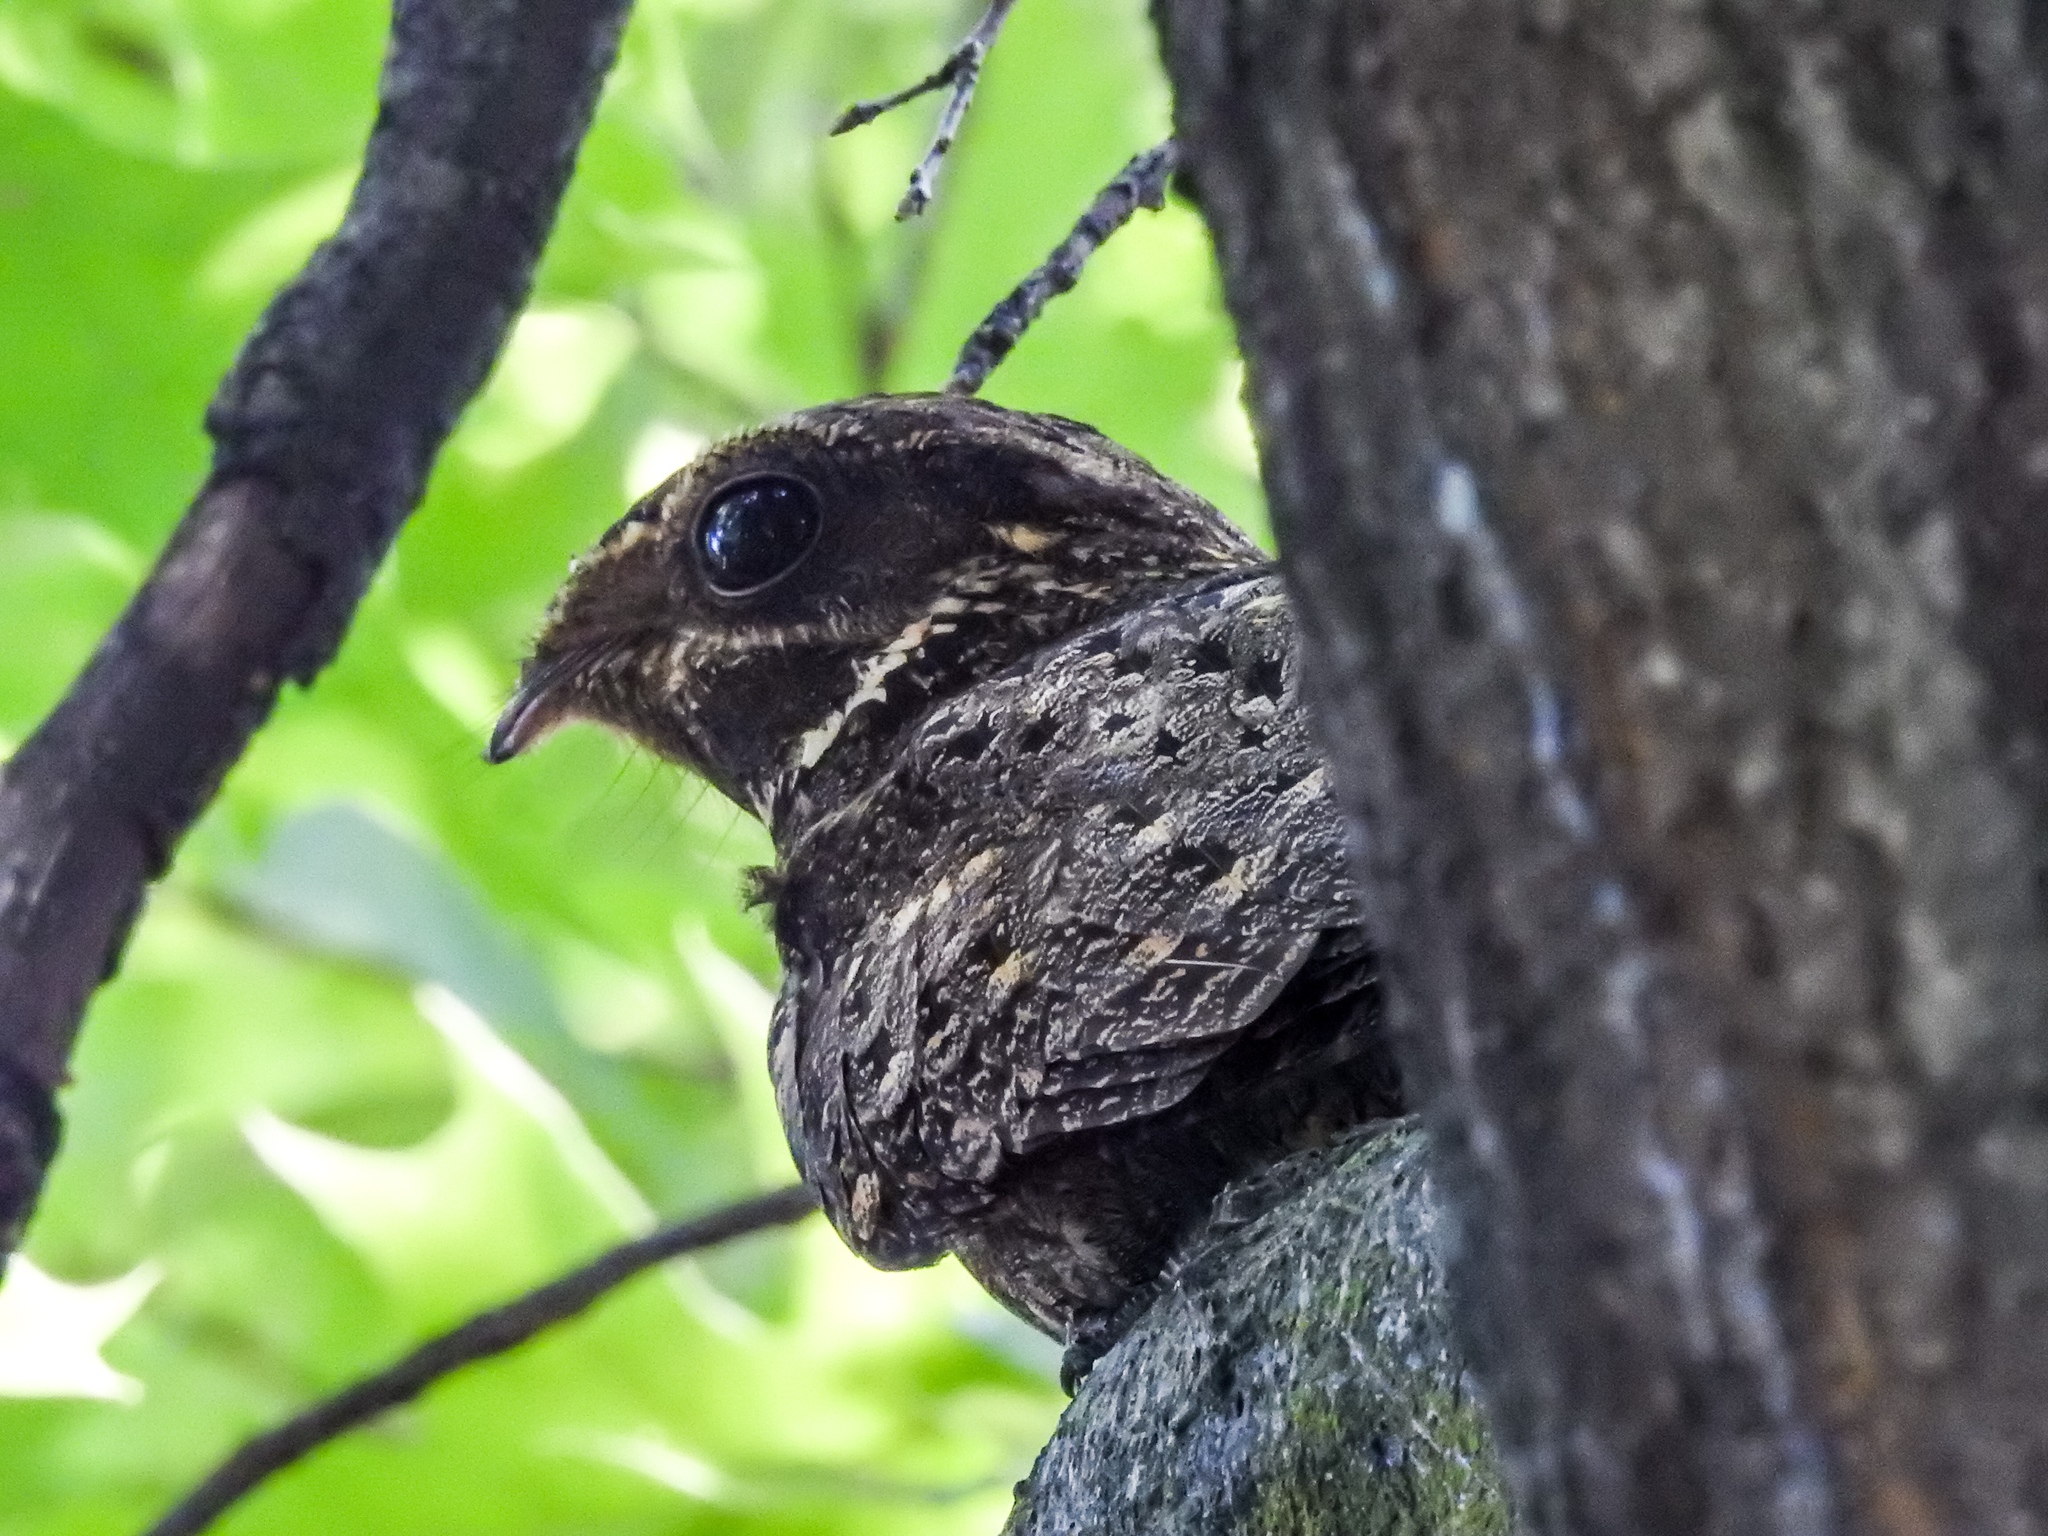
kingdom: Animalia
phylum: Chordata
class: Aves
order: Caprimulgiformes
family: Caprimulgidae
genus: Antrostomus
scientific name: Antrostomus carolinensis
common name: Chuck-will's-widow
